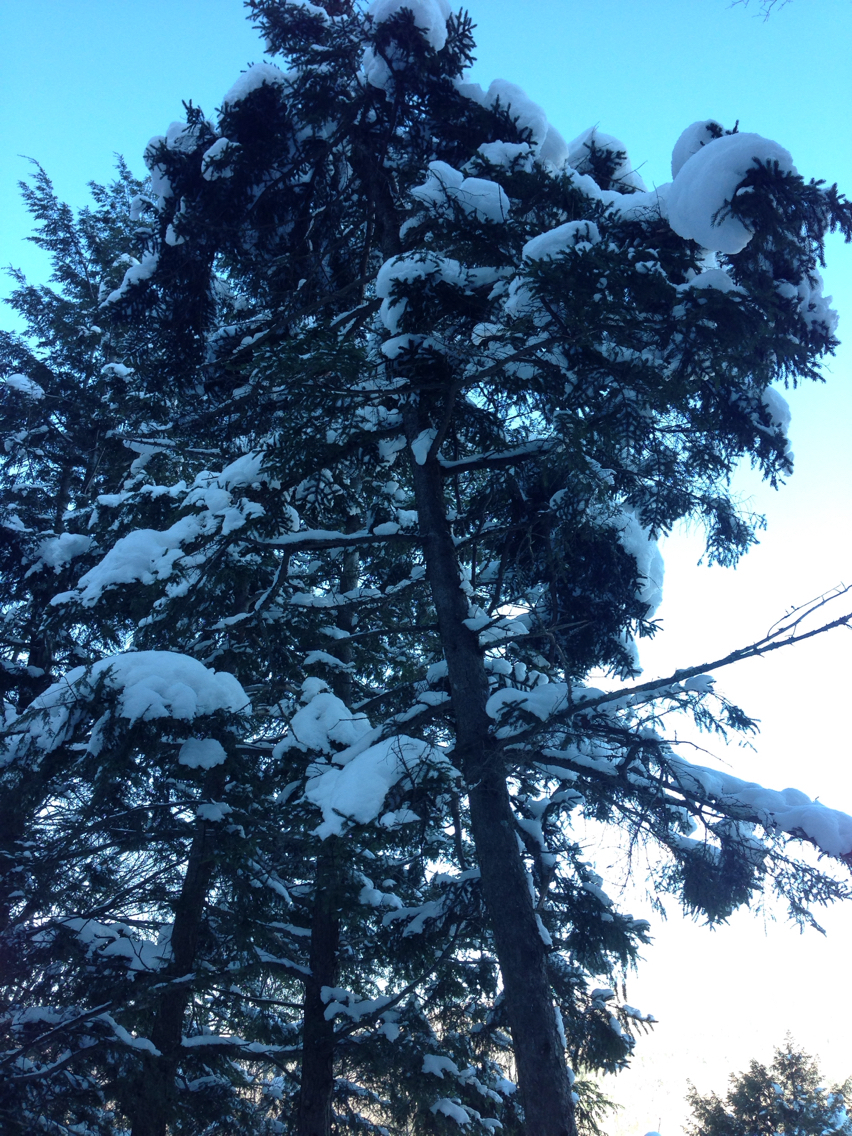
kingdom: Plantae
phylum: Tracheophyta
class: Pinopsida
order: Pinales
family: Pinaceae
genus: Picea
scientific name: Picea rubens
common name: Red spruce
